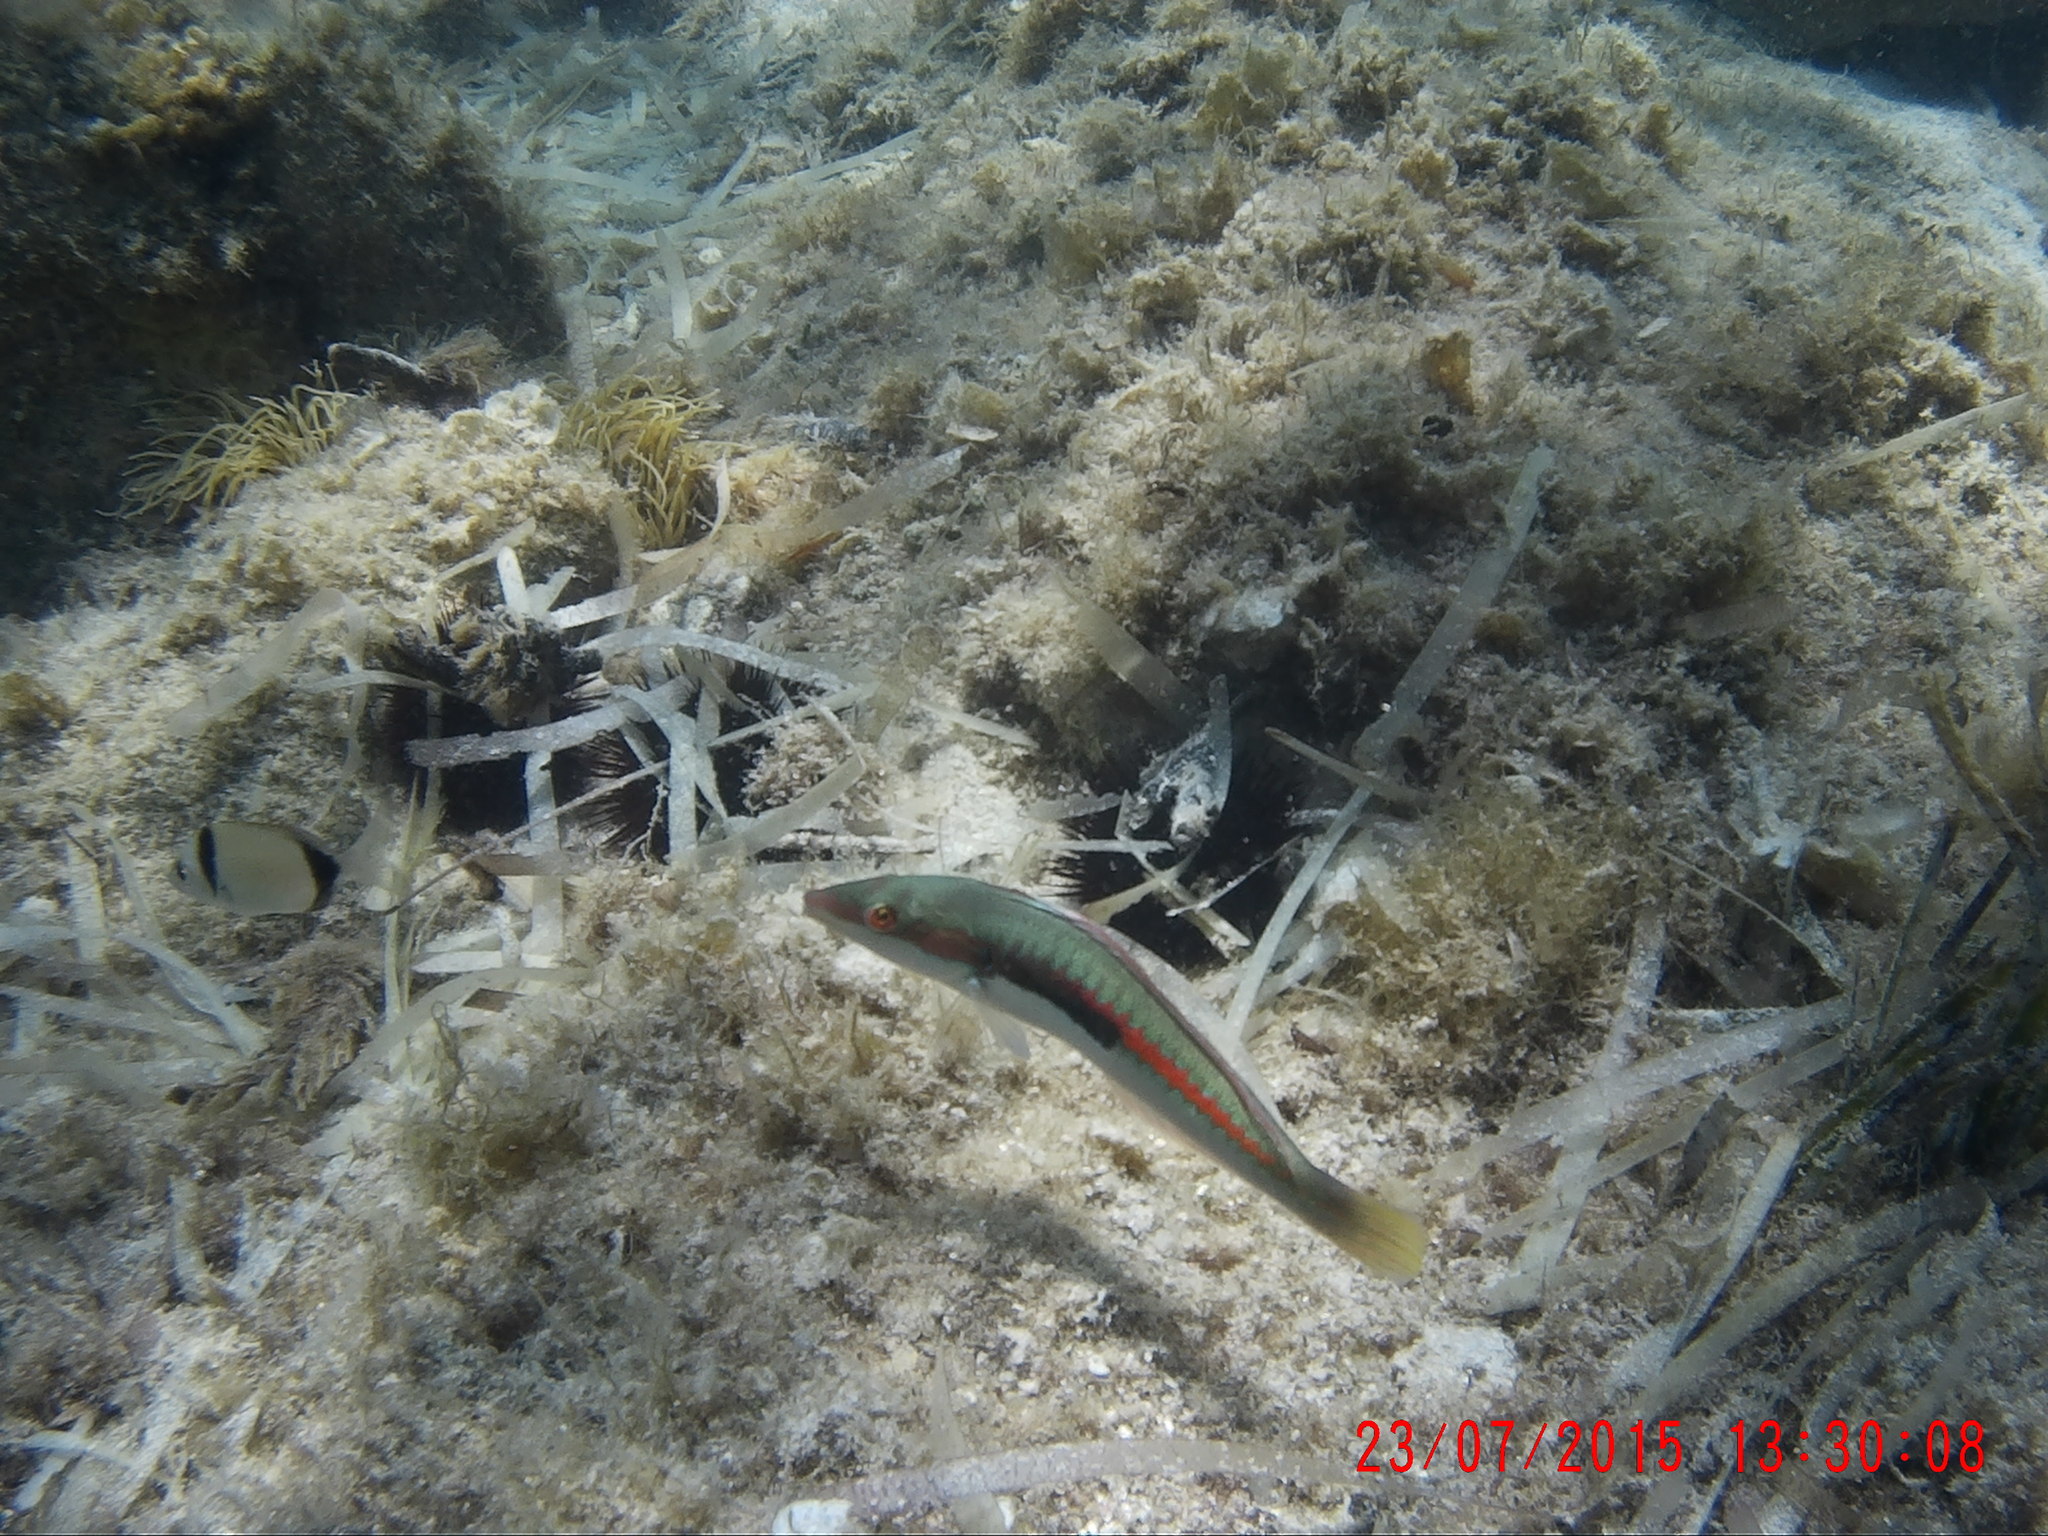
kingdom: Animalia
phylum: Chordata
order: Perciformes
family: Labridae
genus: Coris
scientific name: Coris julis
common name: Rainbow wrasse
